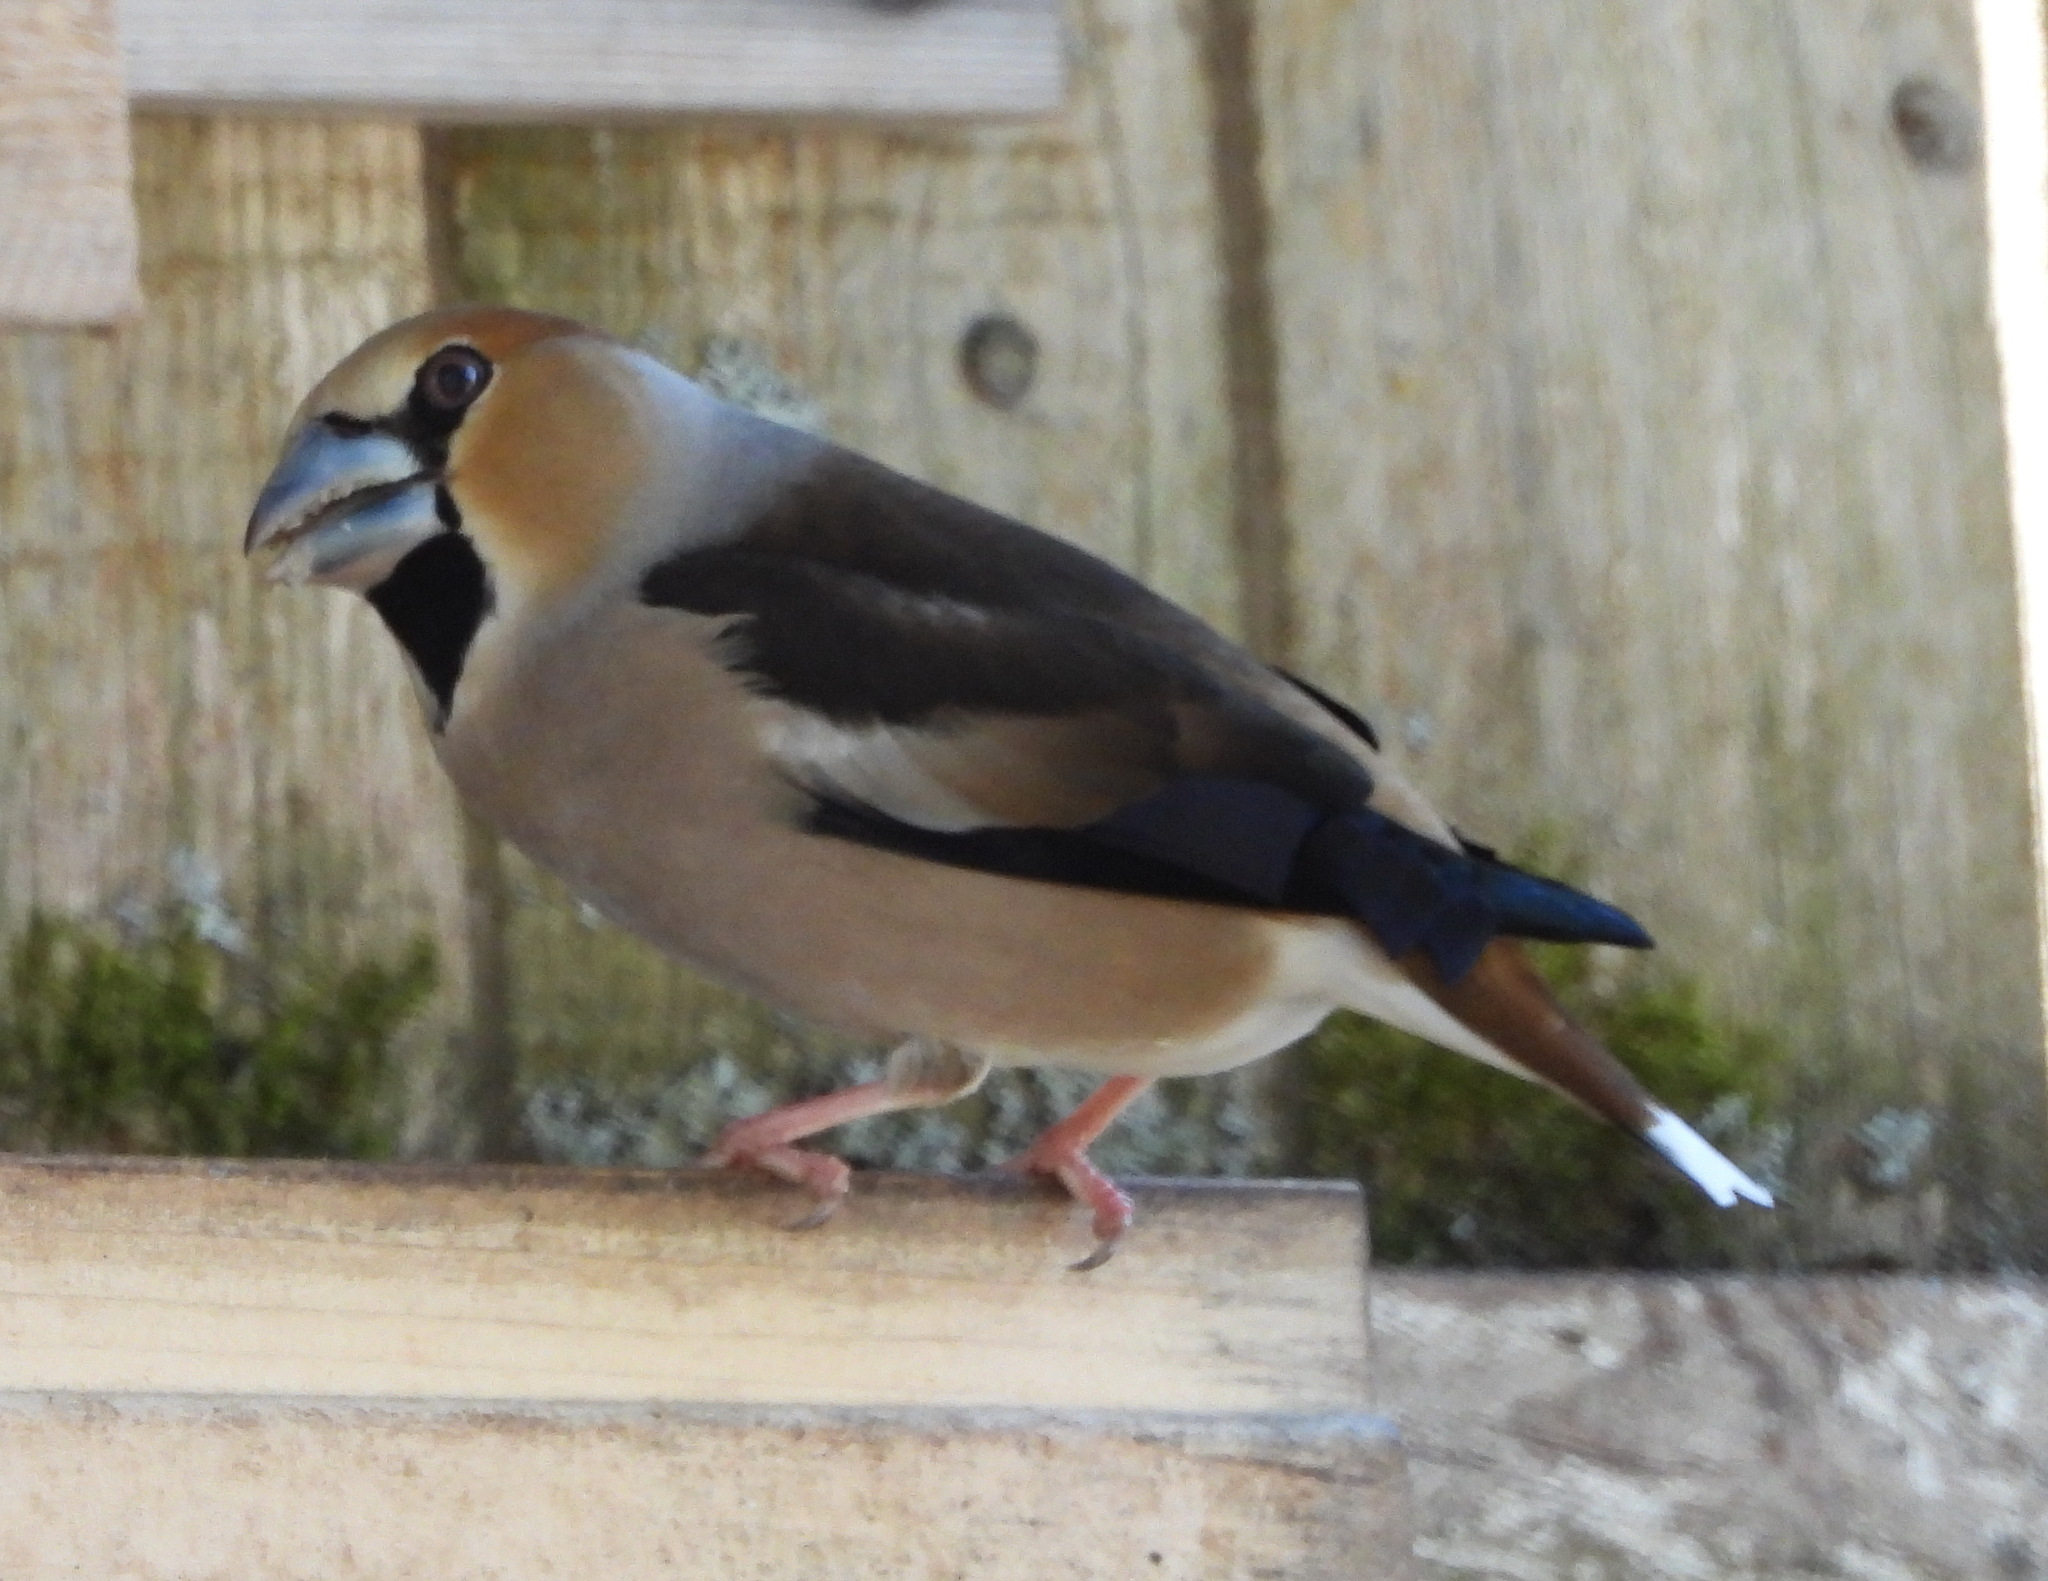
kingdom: Animalia
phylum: Chordata
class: Aves
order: Passeriformes
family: Fringillidae
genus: Coccothraustes
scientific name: Coccothraustes coccothraustes
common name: Hawfinch
